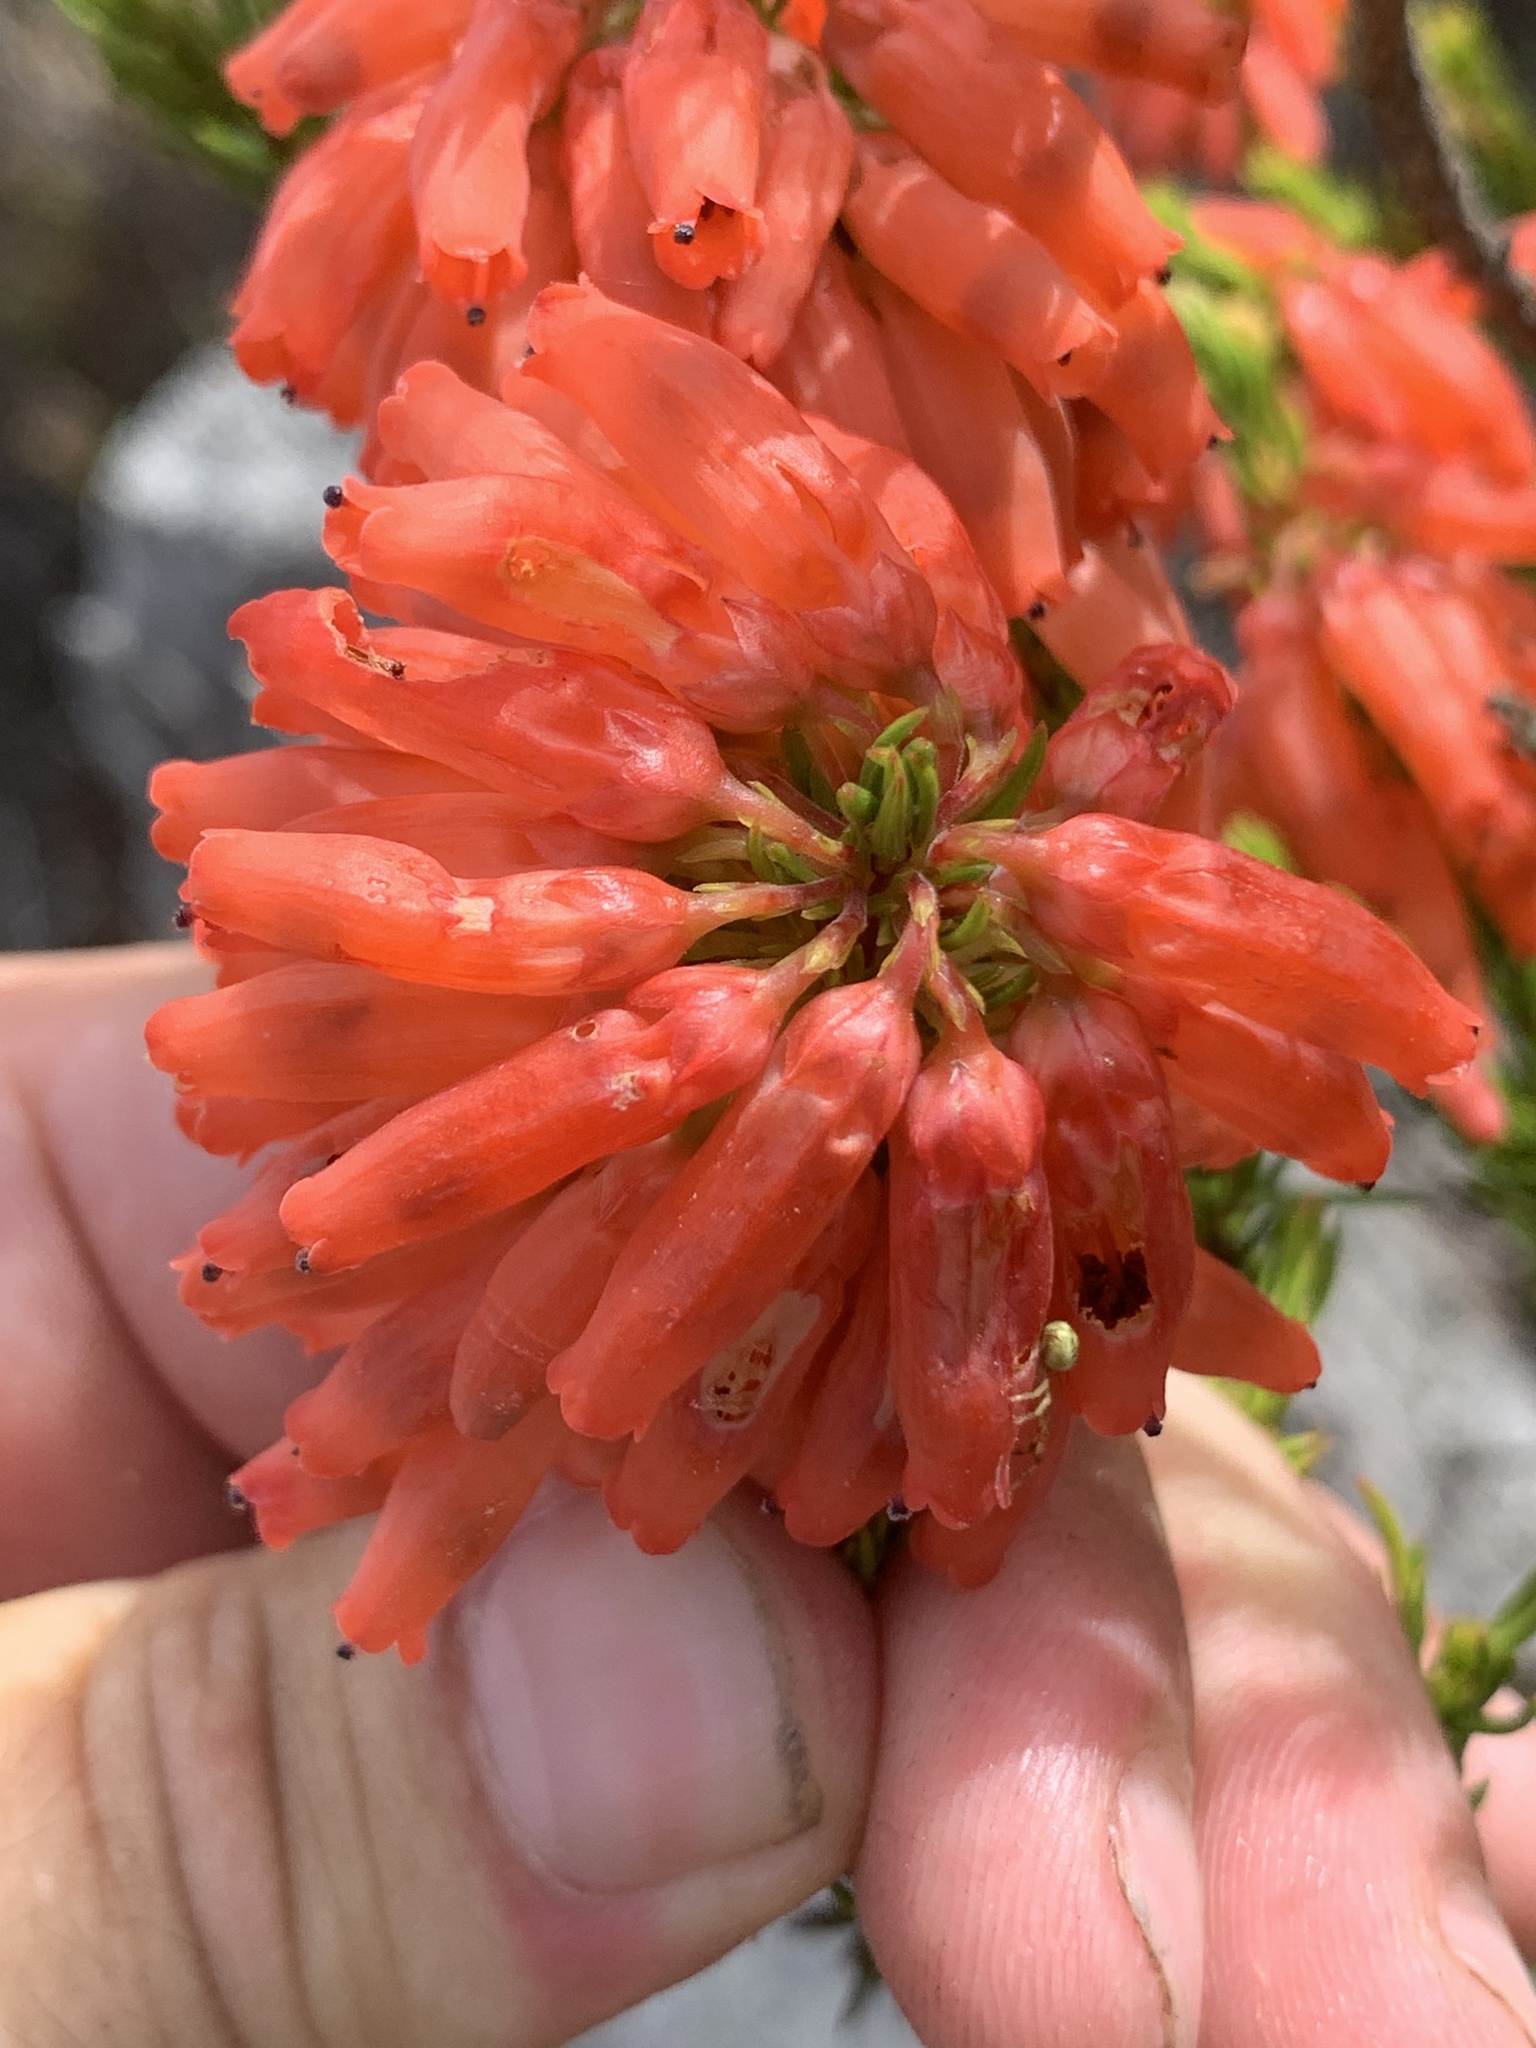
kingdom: Plantae
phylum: Tracheophyta
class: Magnoliopsida
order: Ericales
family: Ericaceae
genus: Erica
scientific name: Erica mammosa
